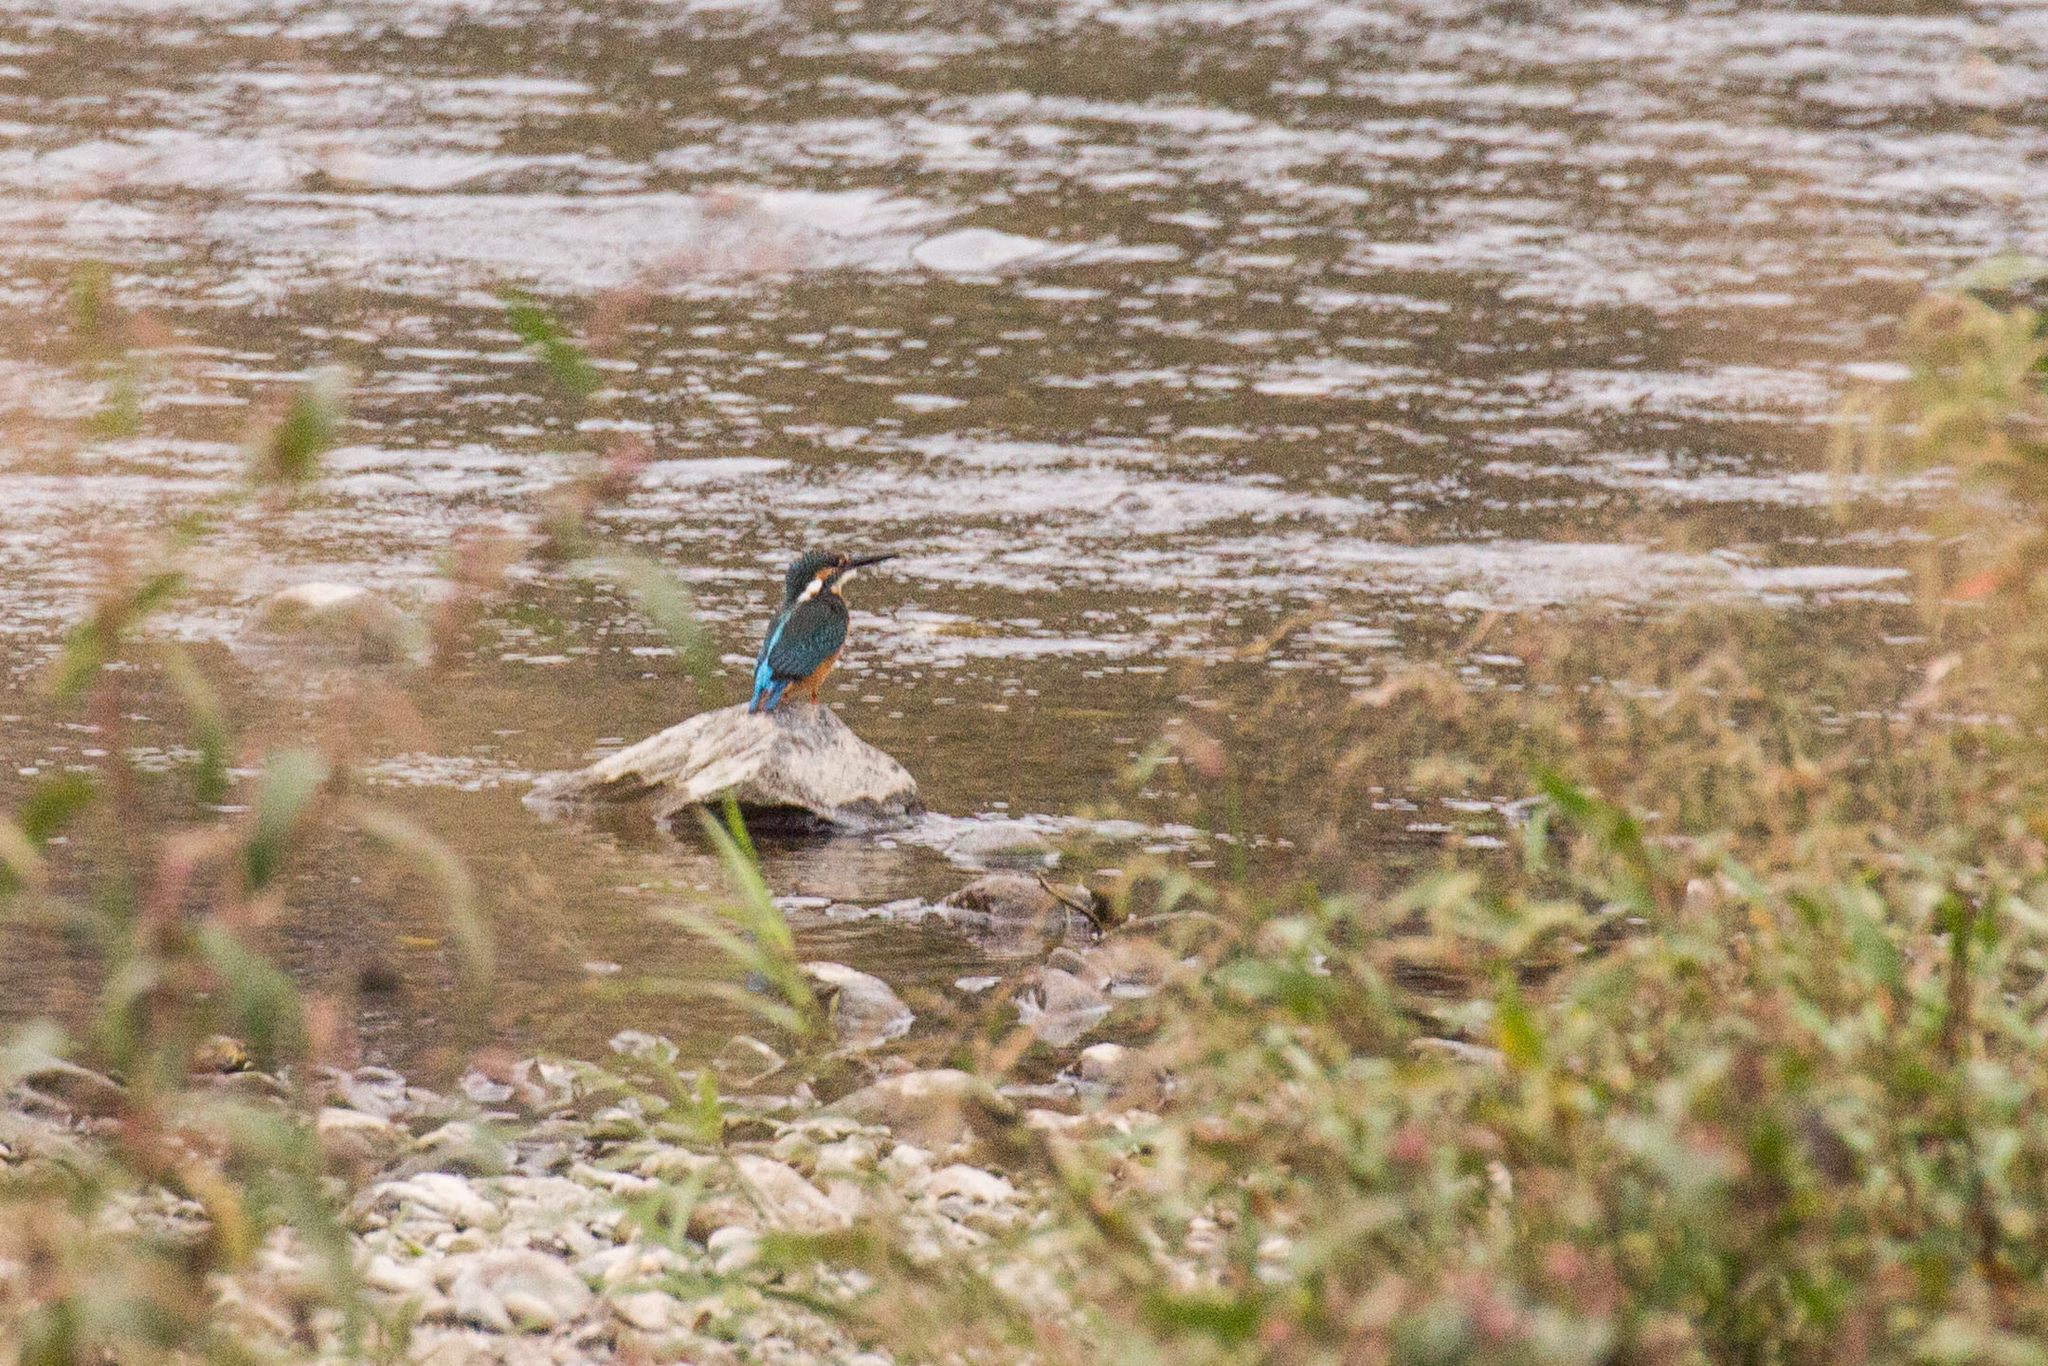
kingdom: Animalia
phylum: Chordata
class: Aves
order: Coraciiformes
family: Alcedinidae
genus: Alcedo
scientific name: Alcedo atthis
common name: Common kingfisher
